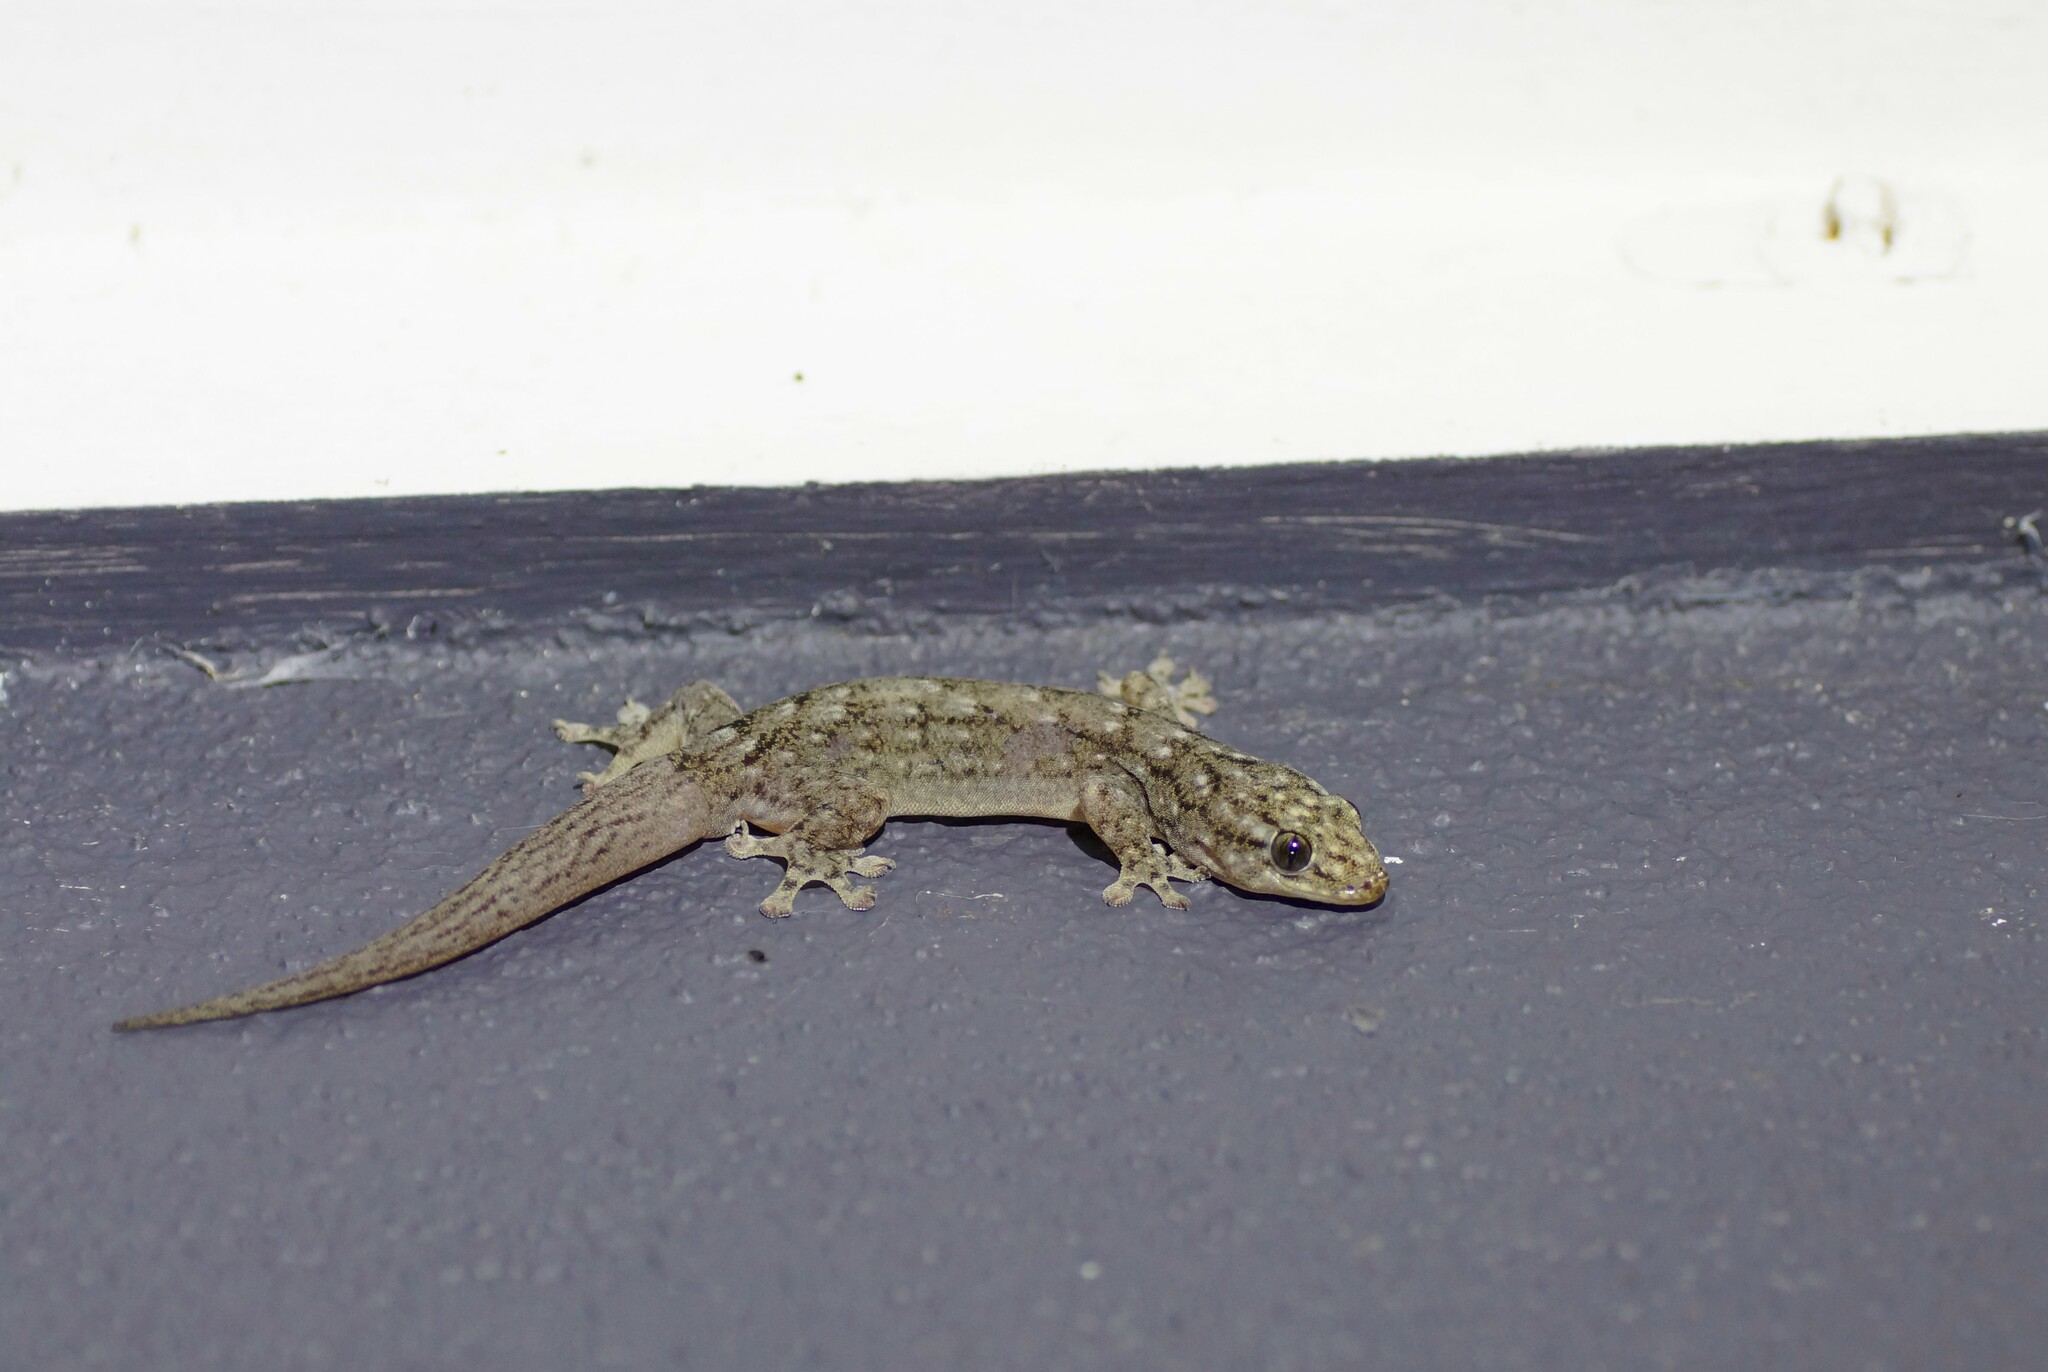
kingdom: Animalia
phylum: Chordata
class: Squamata
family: Gekkonidae
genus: Gehyra
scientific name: Gehyra dubia
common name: Dubious dtella
